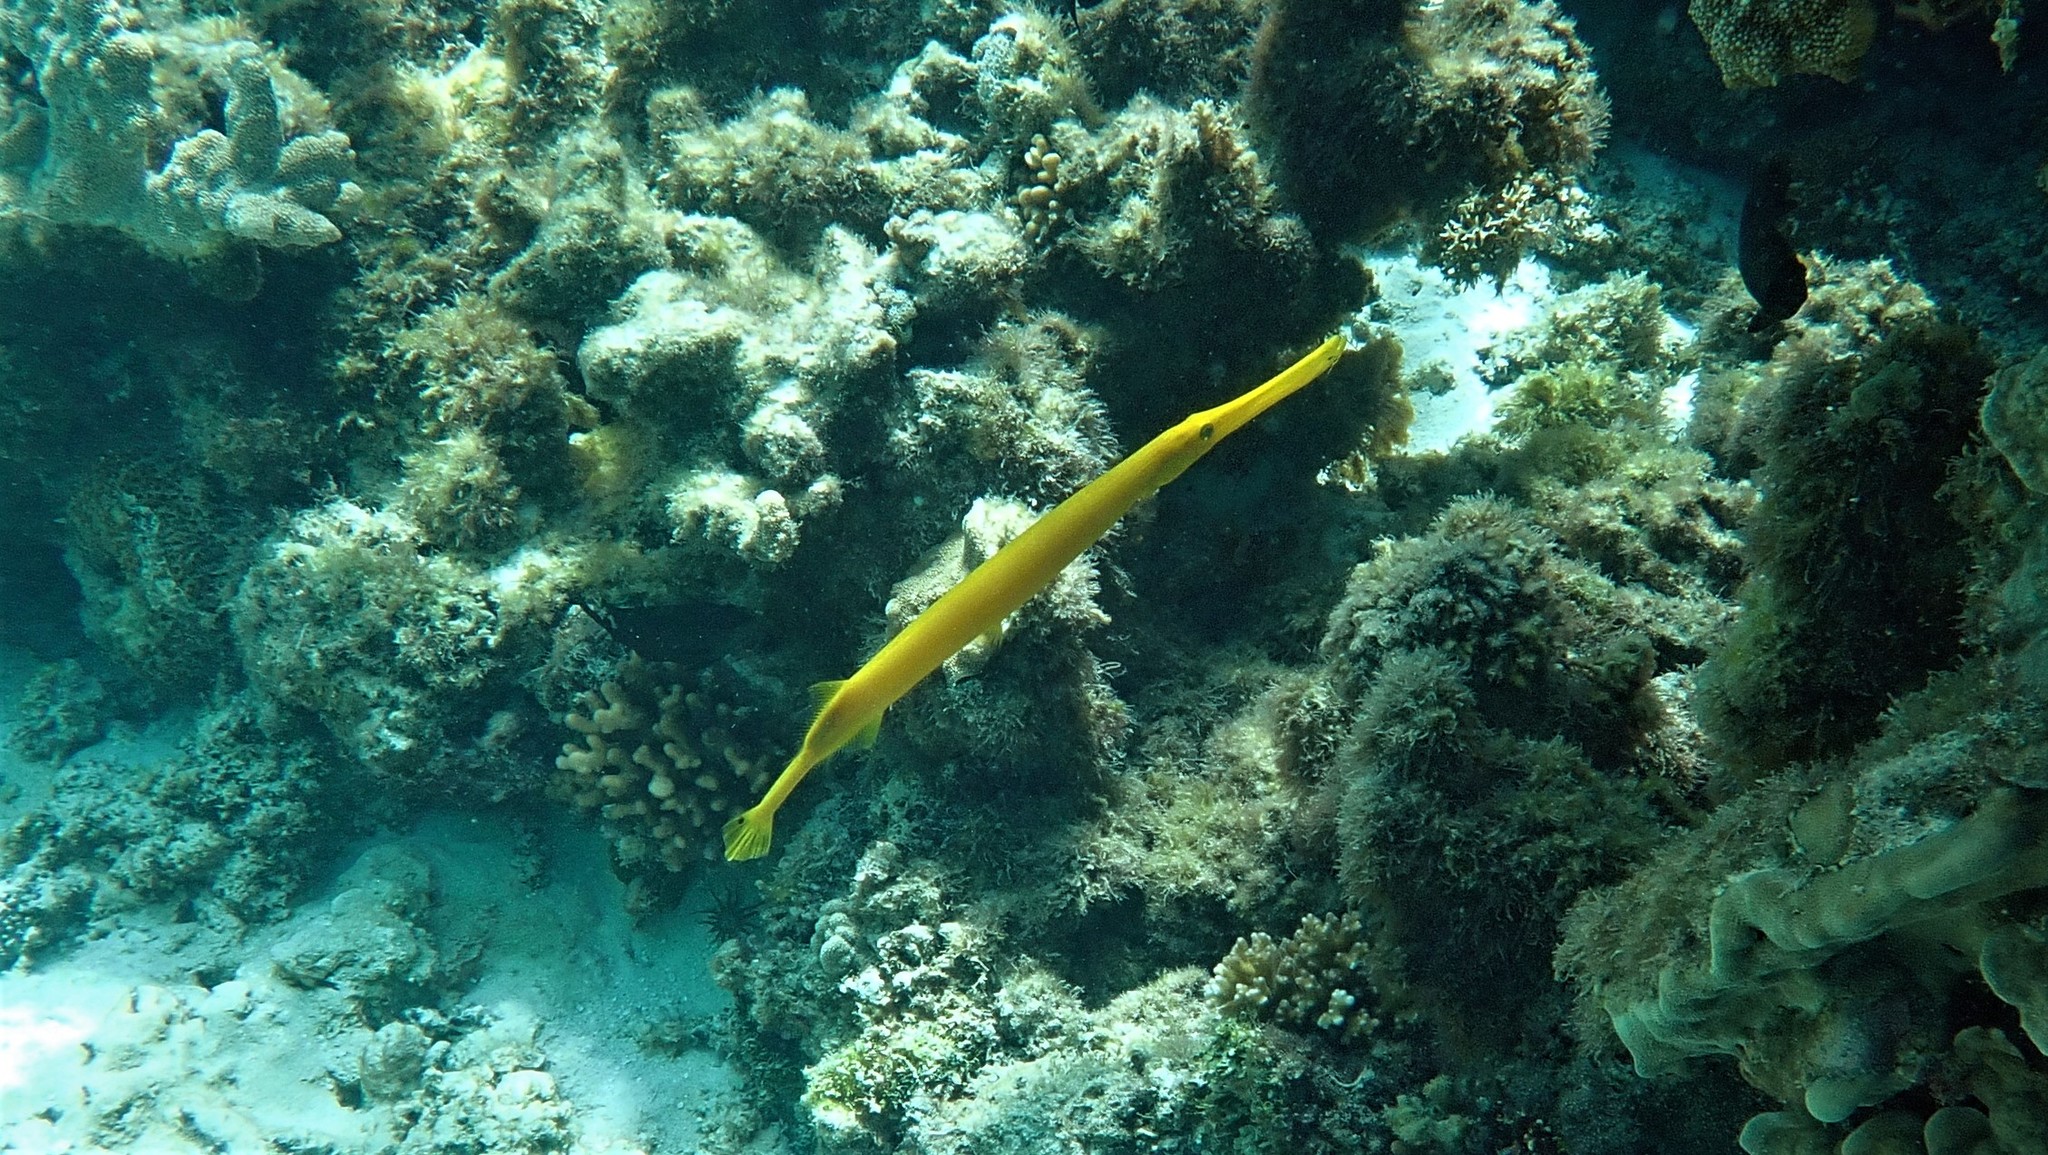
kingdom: Animalia
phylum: Chordata
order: Syngnathiformes
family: Aulostomidae
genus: Aulostomus
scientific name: Aulostomus chinensis
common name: Chinese trumpetfish
